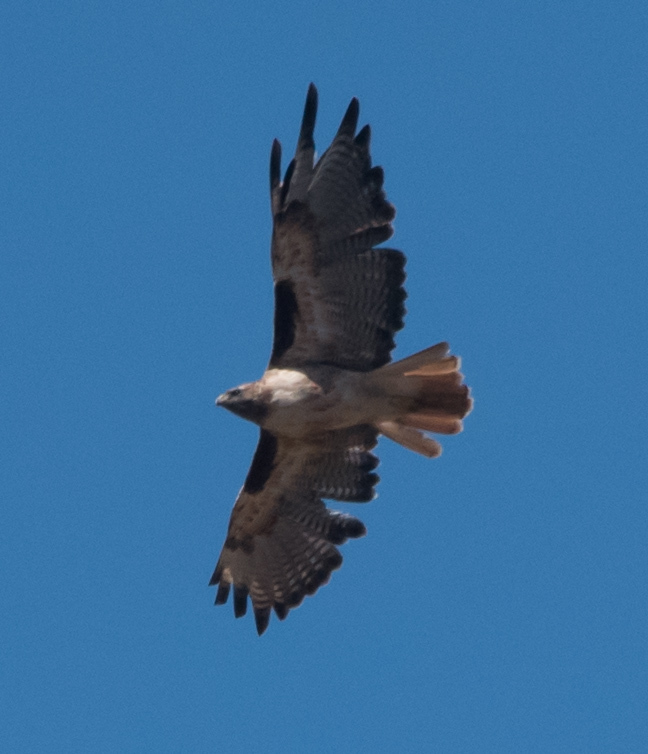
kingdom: Animalia
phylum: Chordata
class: Aves
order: Accipitriformes
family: Accipitridae
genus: Buteo
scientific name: Buteo jamaicensis
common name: Red-tailed hawk
